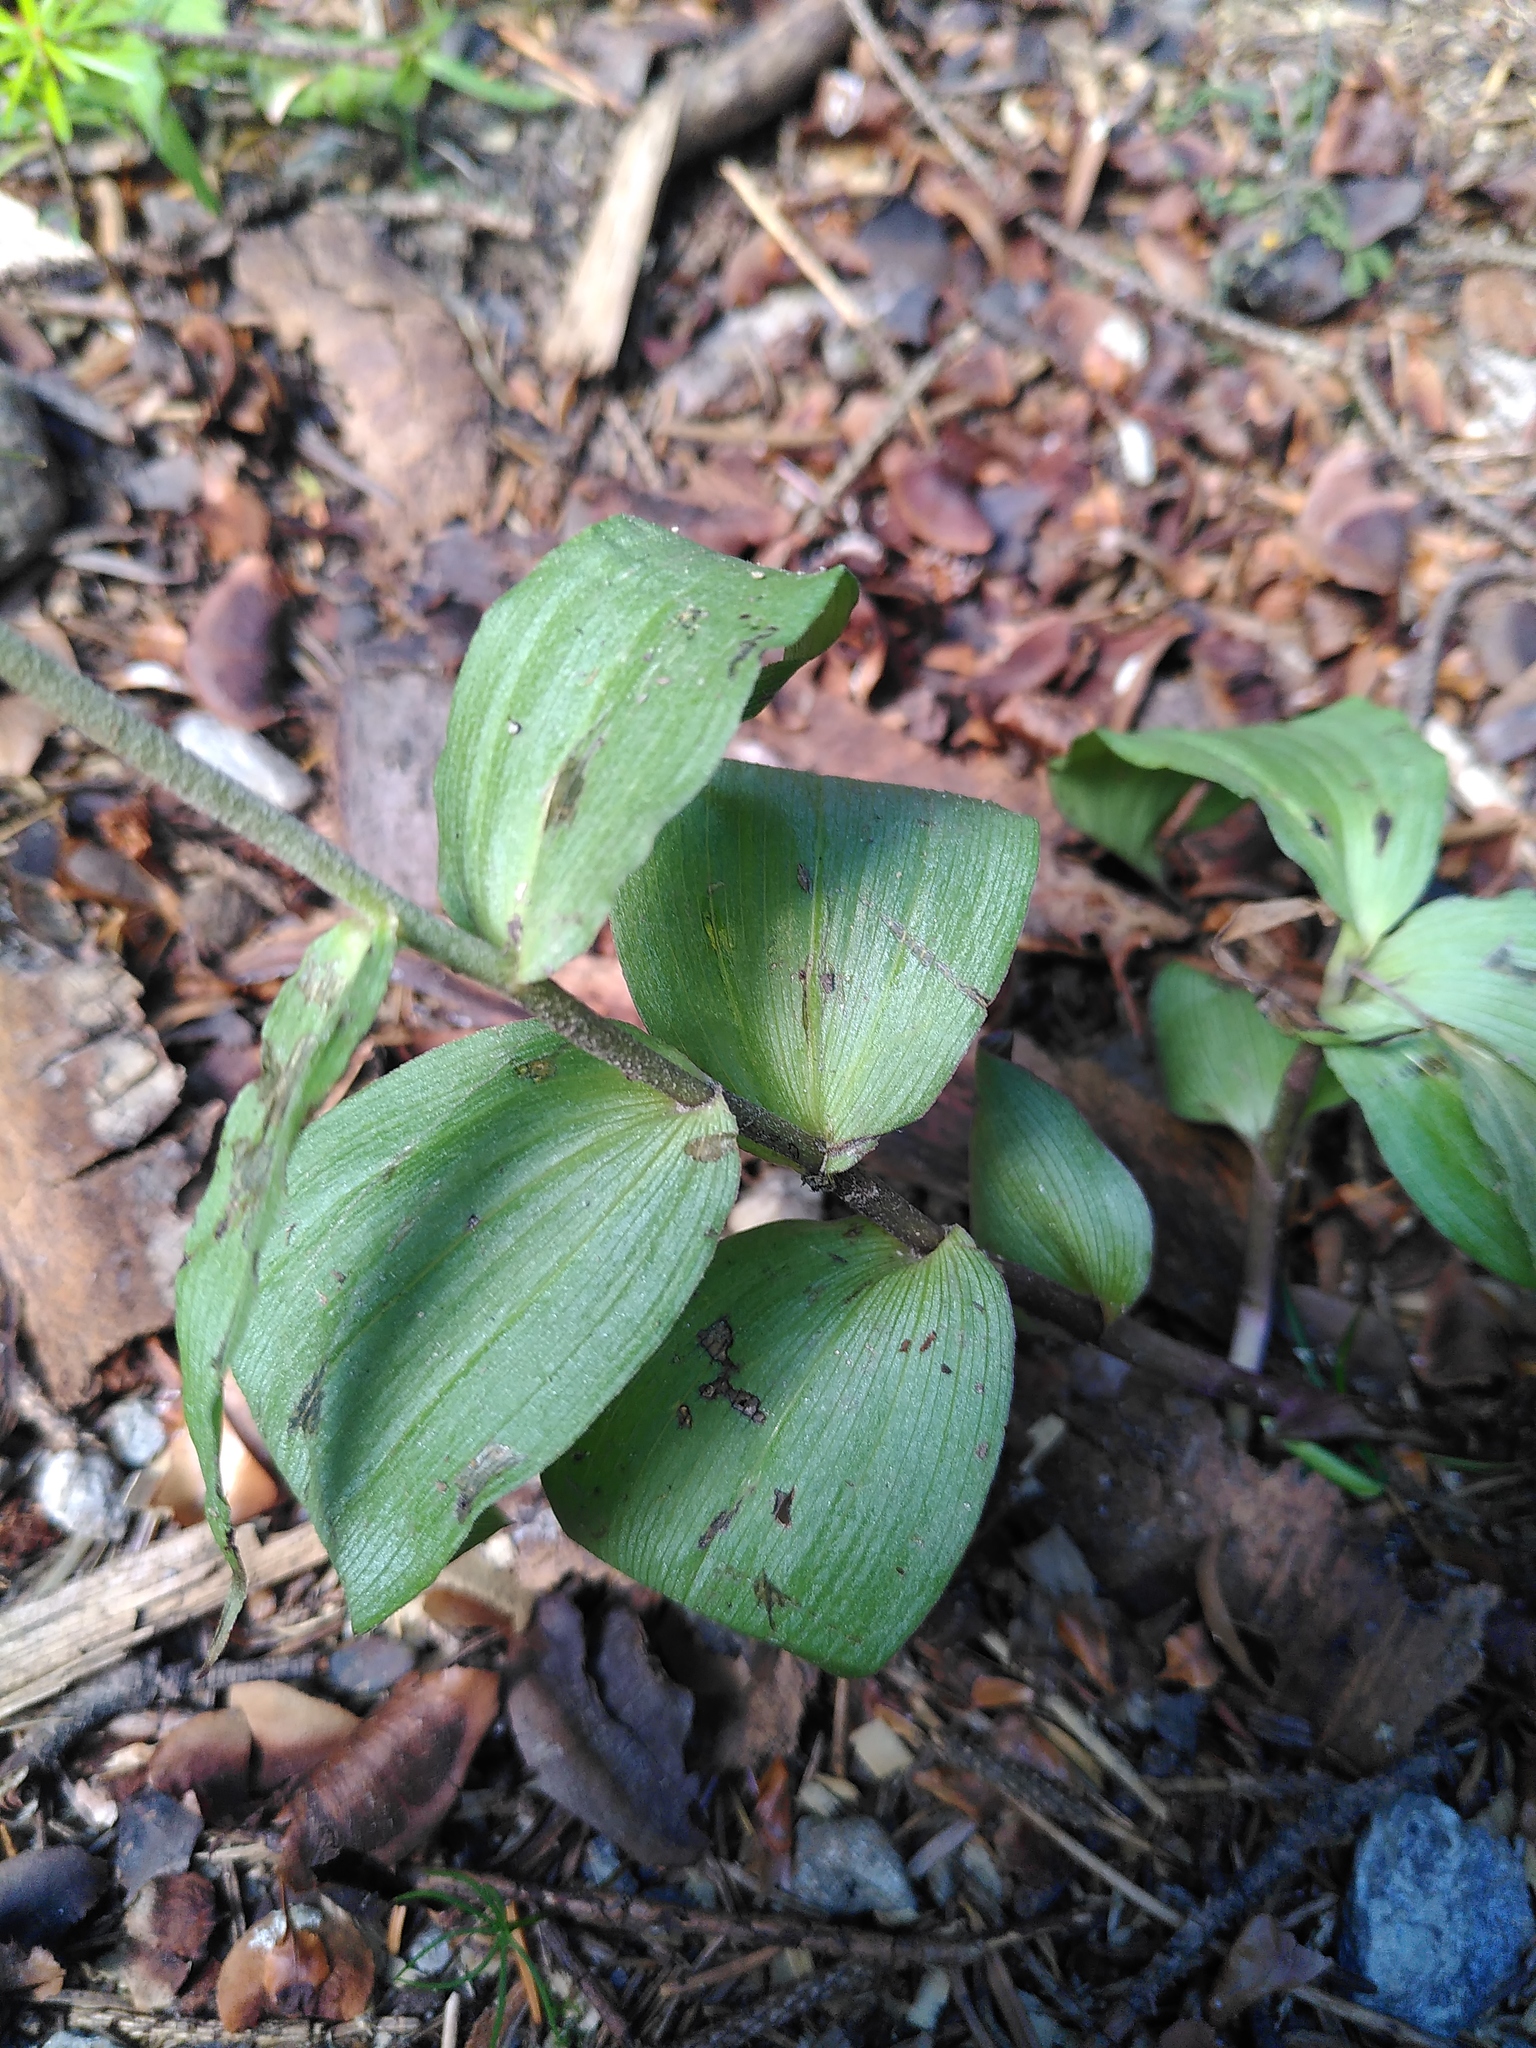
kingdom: Plantae
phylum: Tracheophyta
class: Liliopsida
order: Asparagales
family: Orchidaceae
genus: Epipactis
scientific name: Epipactis atrorubens
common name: Dark-red helleborine
